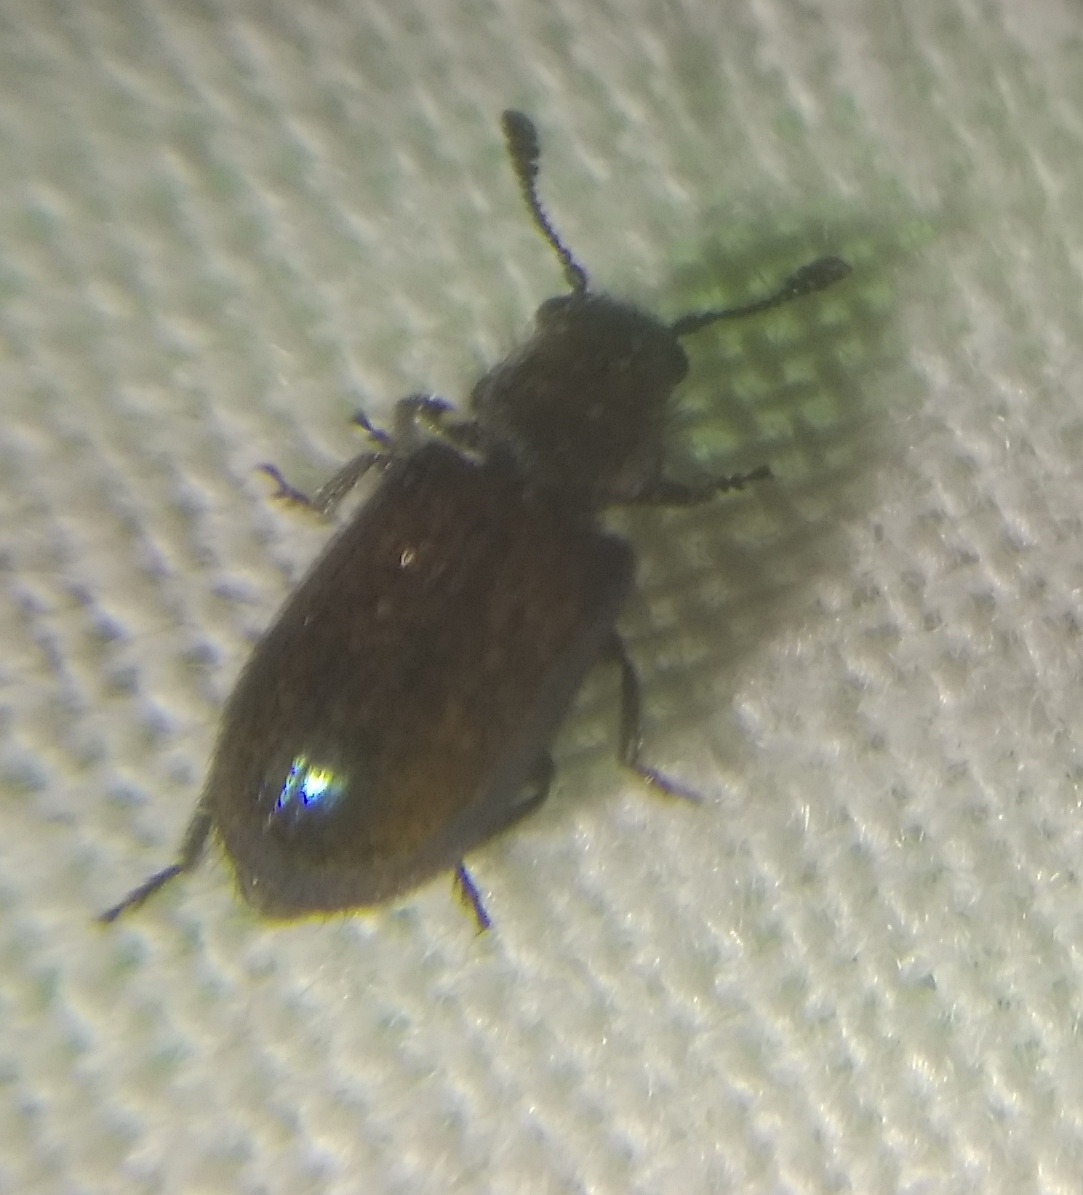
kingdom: Animalia
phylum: Arthropoda
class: Insecta
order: Coleoptera
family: Cleridae
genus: Necrobia
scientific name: Necrobia violacea
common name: Violet checkered beetle
